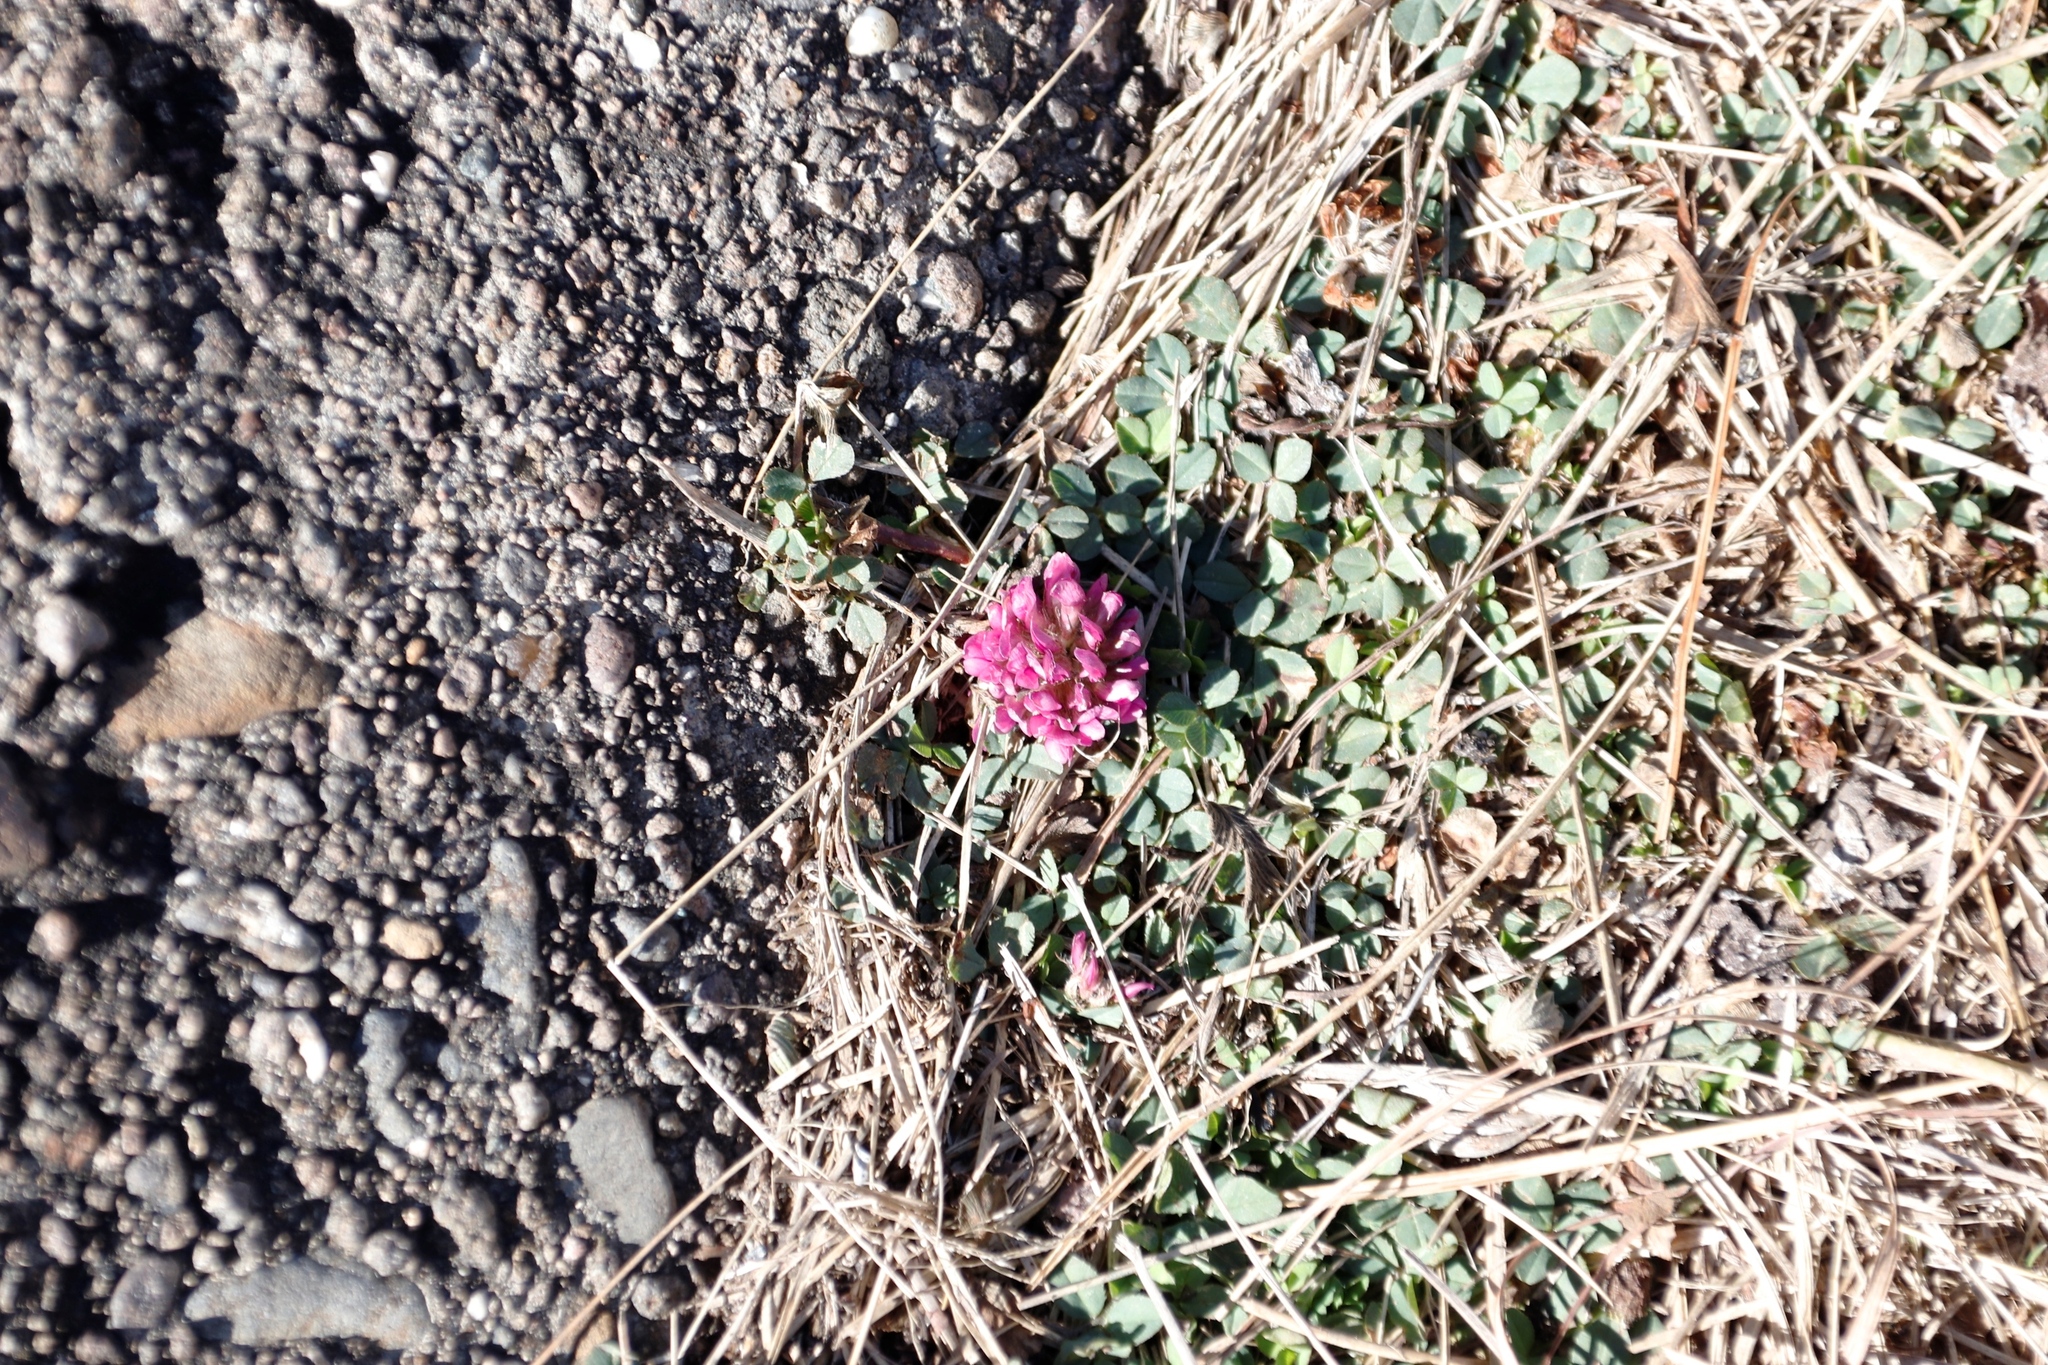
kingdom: Plantae
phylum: Tracheophyta
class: Magnoliopsida
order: Fabales
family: Fabaceae
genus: Trifolium
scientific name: Trifolium burchellianum
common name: Burchell's clover
